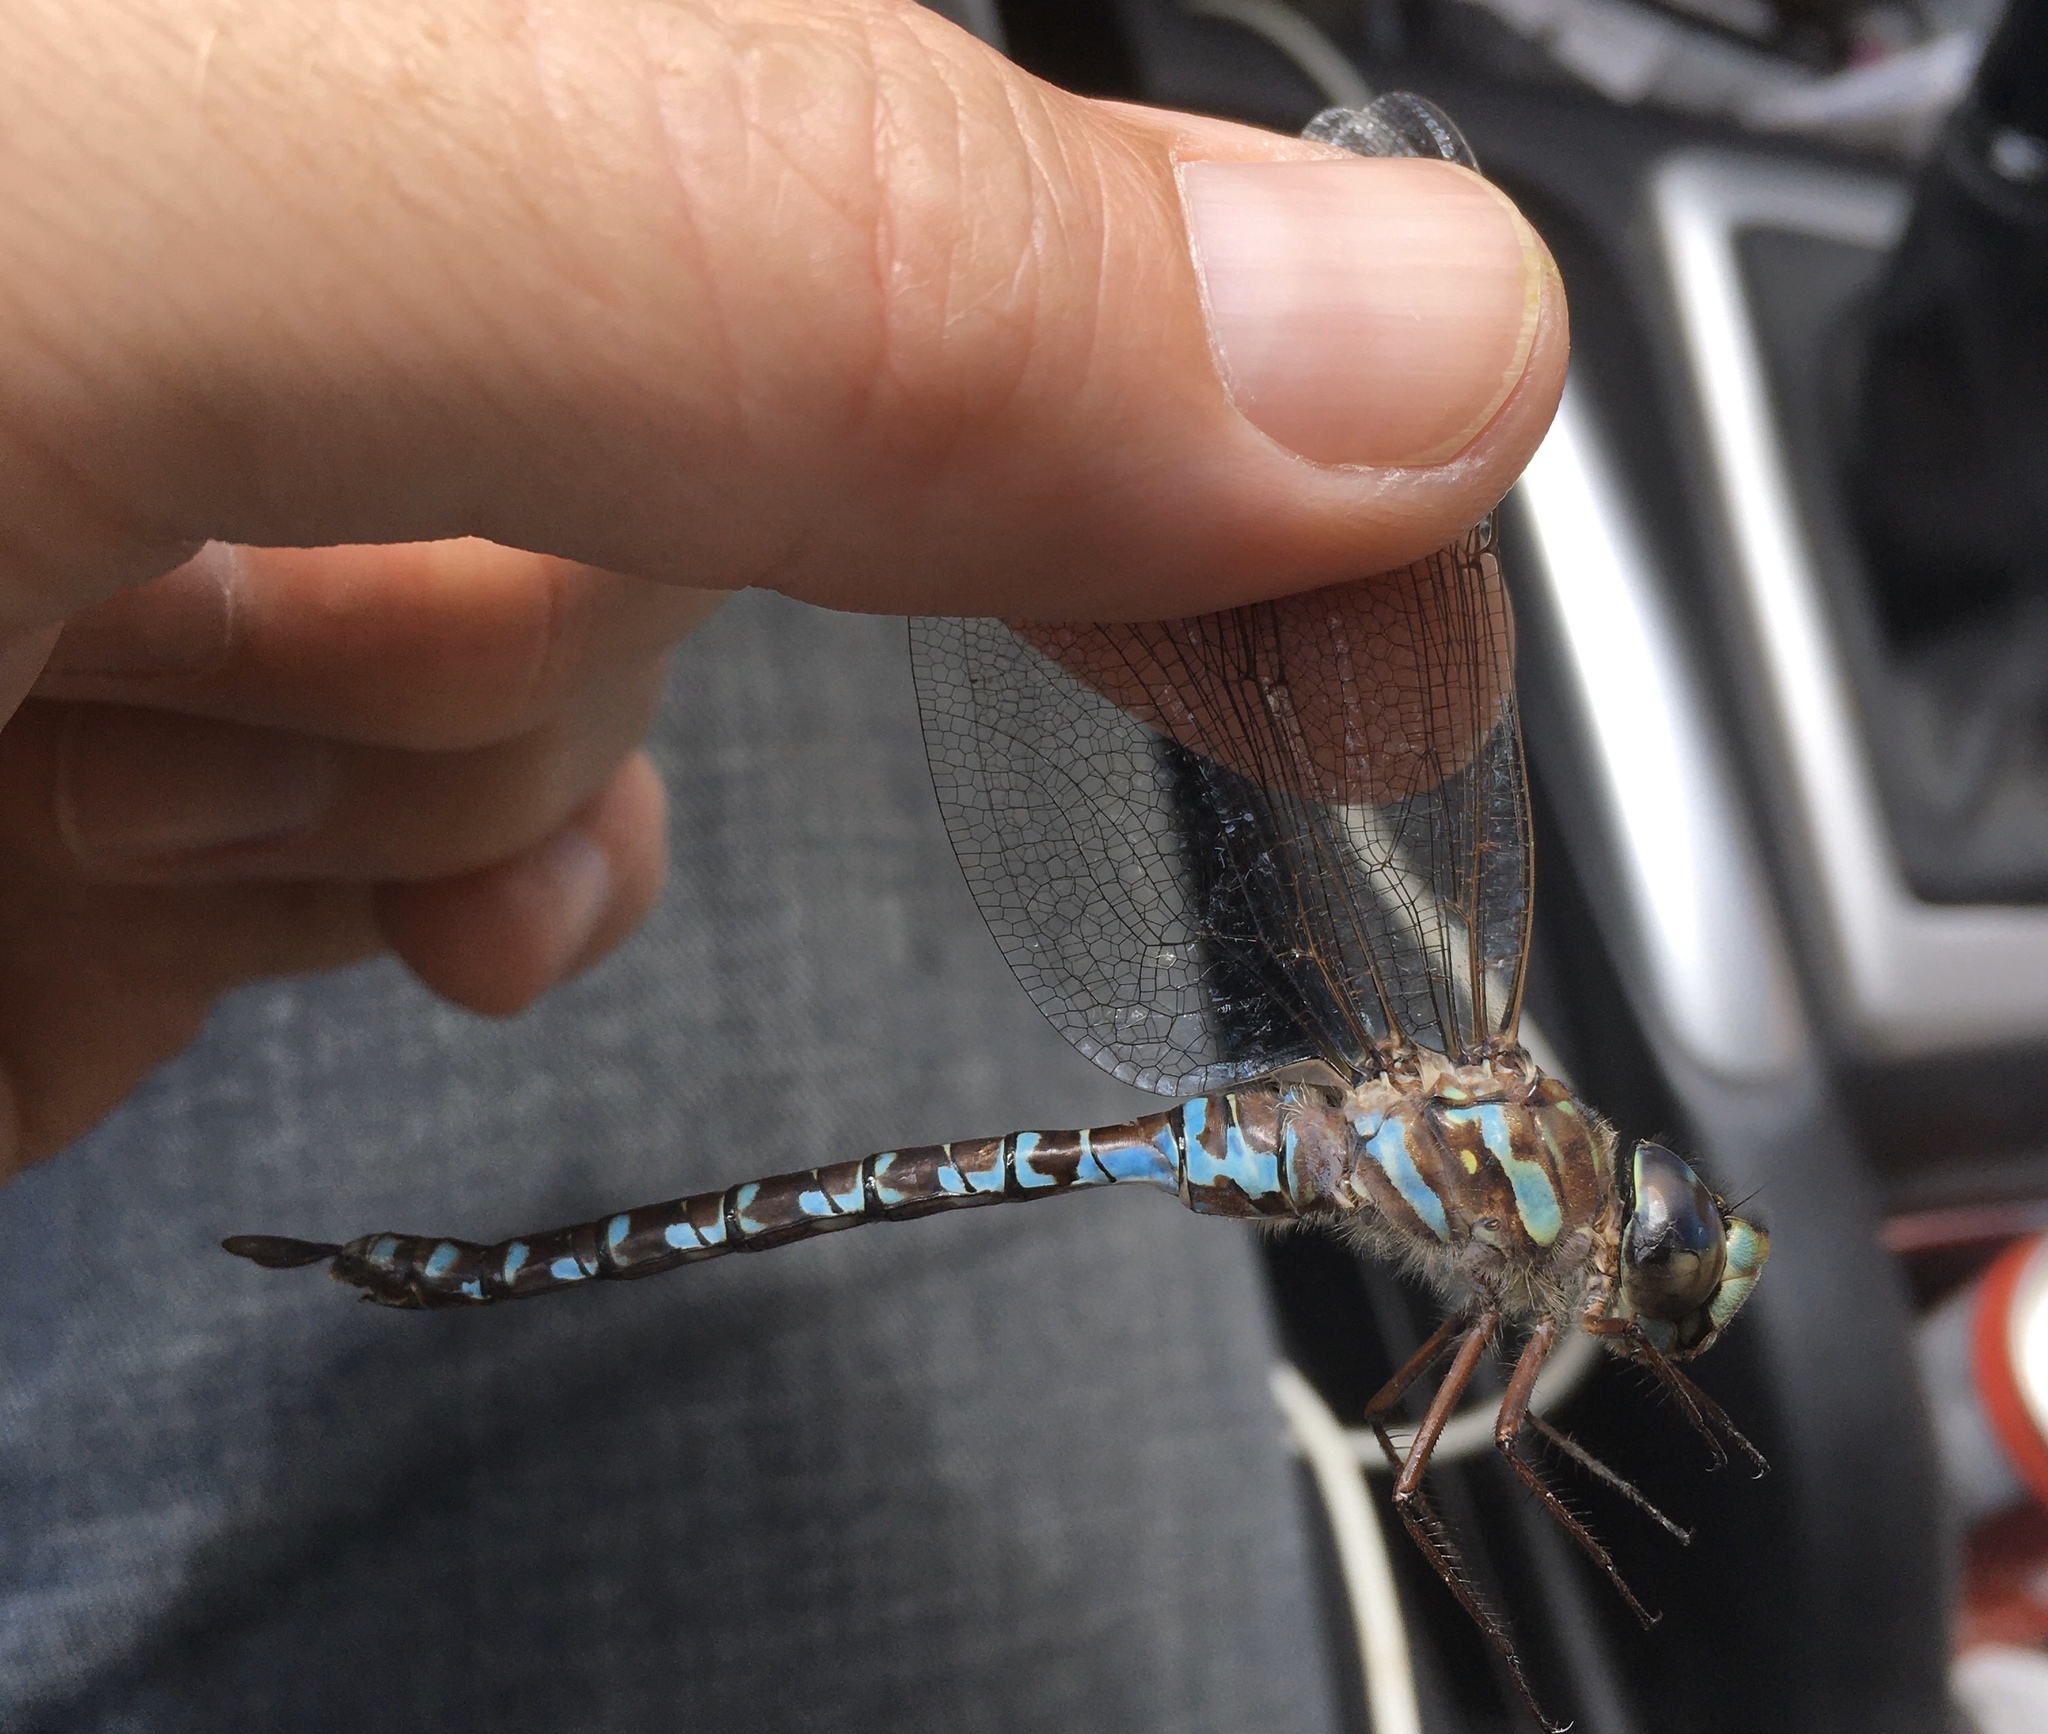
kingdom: Animalia
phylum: Arthropoda
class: Insecta
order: Odonata
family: Aeshnidae
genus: Aeshna
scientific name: Aeshna canadensis
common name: Canada darner
